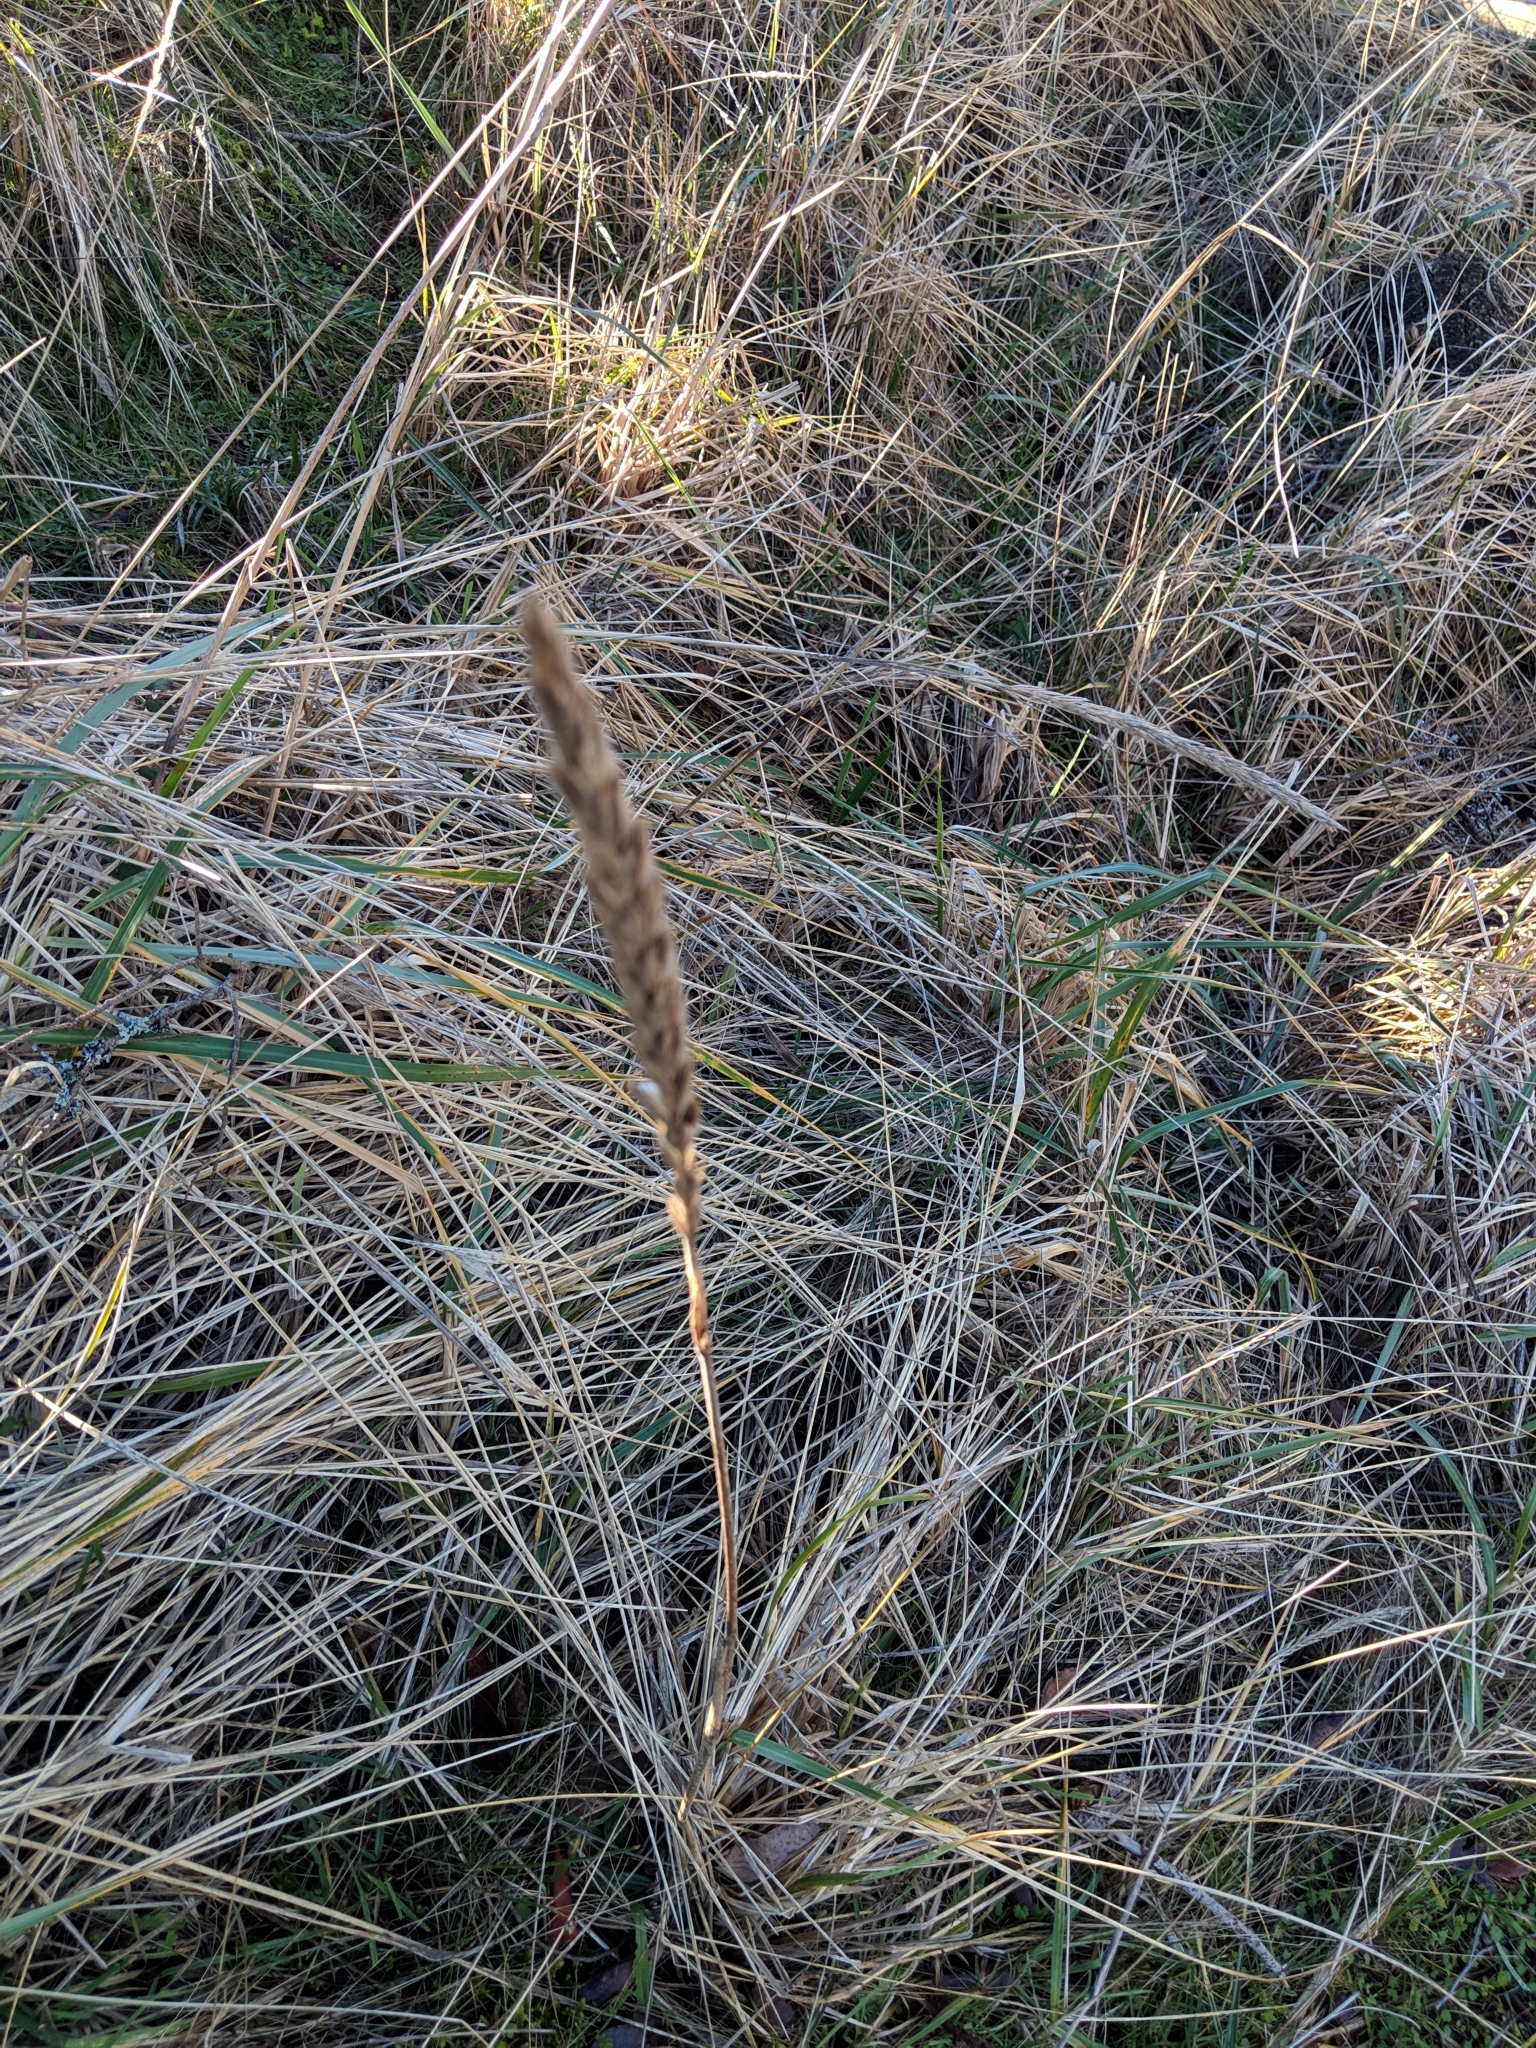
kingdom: Plantae
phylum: Tracheophyta
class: Liliopsida
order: Poales
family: Poaceae
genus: Leymus
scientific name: Leymus mollis
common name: American dune grass
